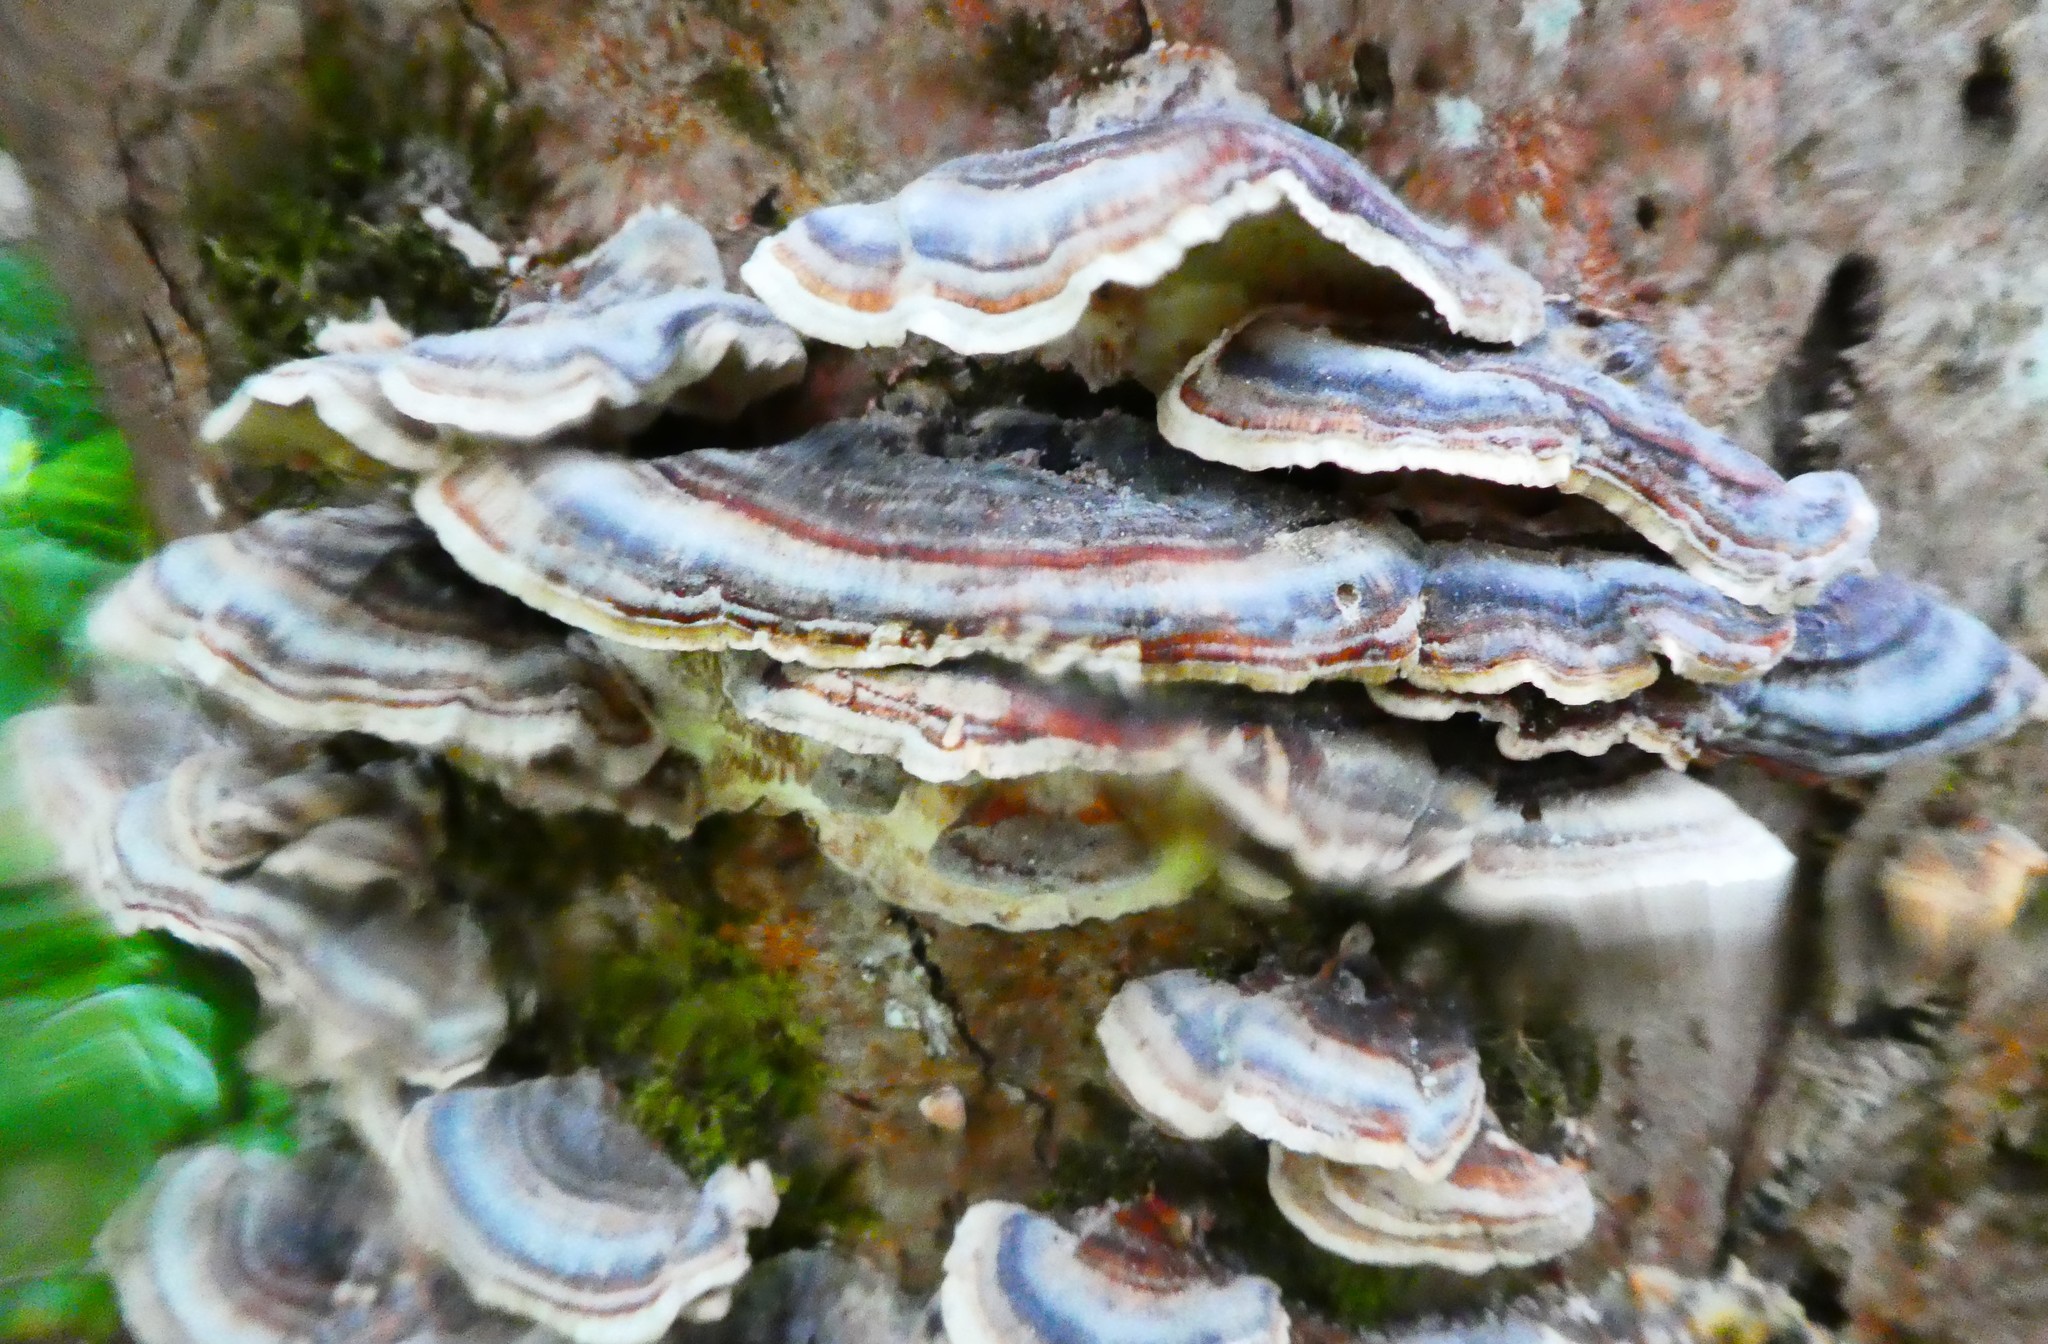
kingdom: Fungi
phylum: Basidiomycota
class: Agaricomycetes
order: Polyporales
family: Polyporaceae
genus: Trametes
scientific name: Trametes versicolor
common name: Turkeytail
